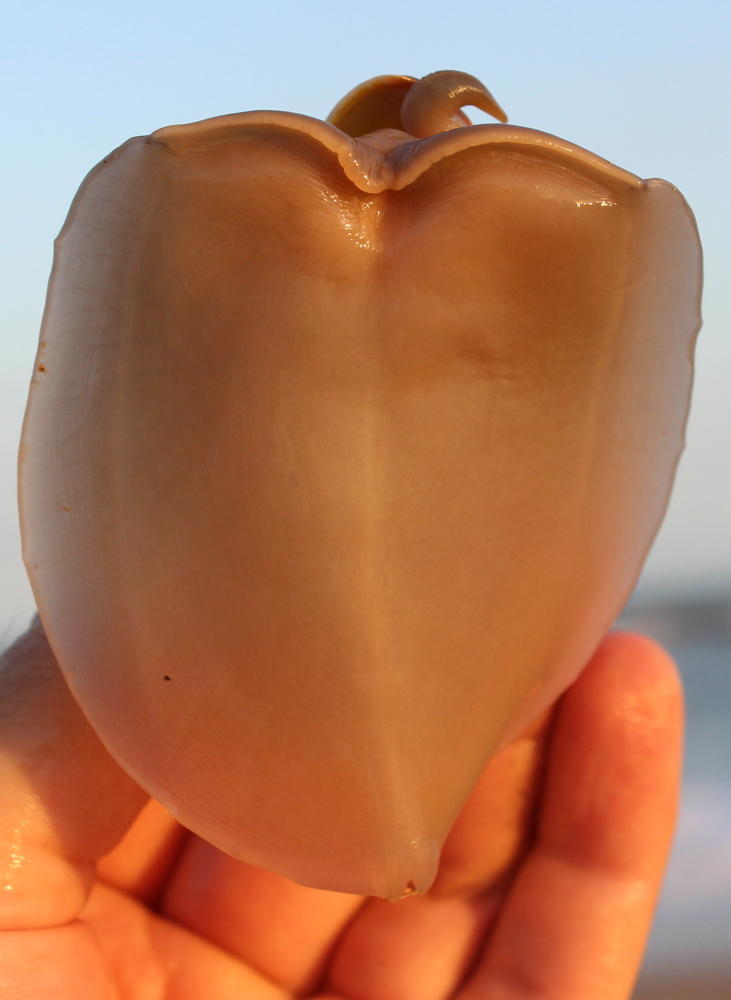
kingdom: Animalia
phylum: Mollusca
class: Gastropoda
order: Neogastropoda
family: Nassariidae
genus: Bullia
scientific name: Bullia natalensis
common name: Pleated plough shell
